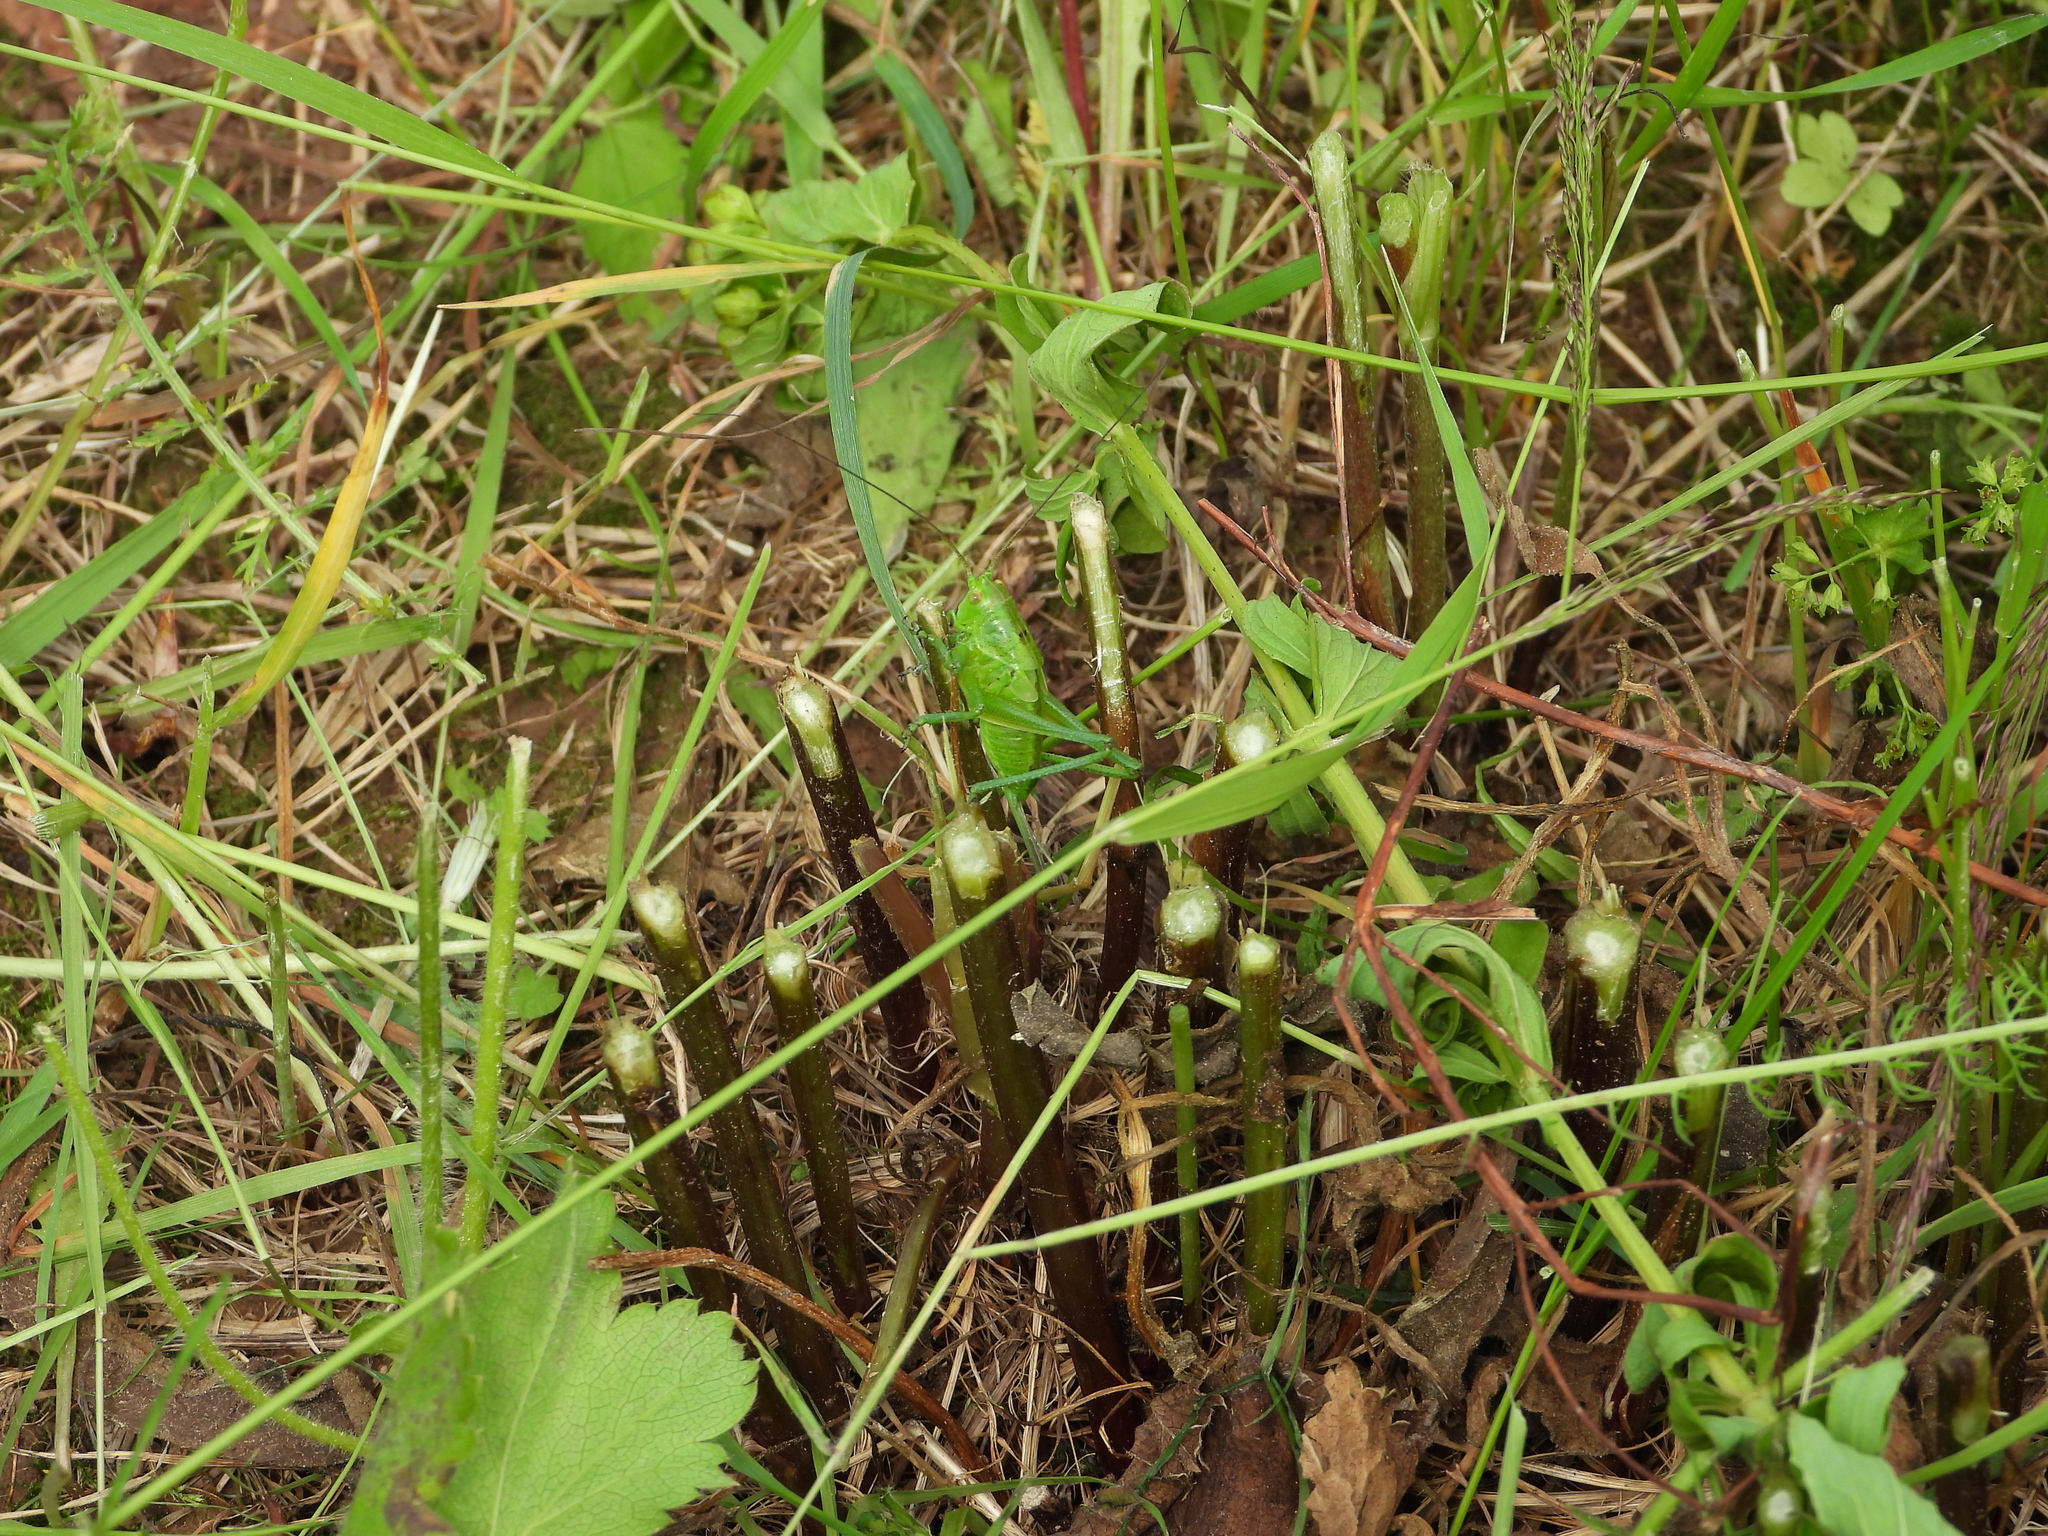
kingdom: Animalia
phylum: Arthropoda
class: Insecta
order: Orthoptera
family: Tettigoniidae
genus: Tettigonia
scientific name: Tettigonia cantans
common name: Upland green bush-cricket
